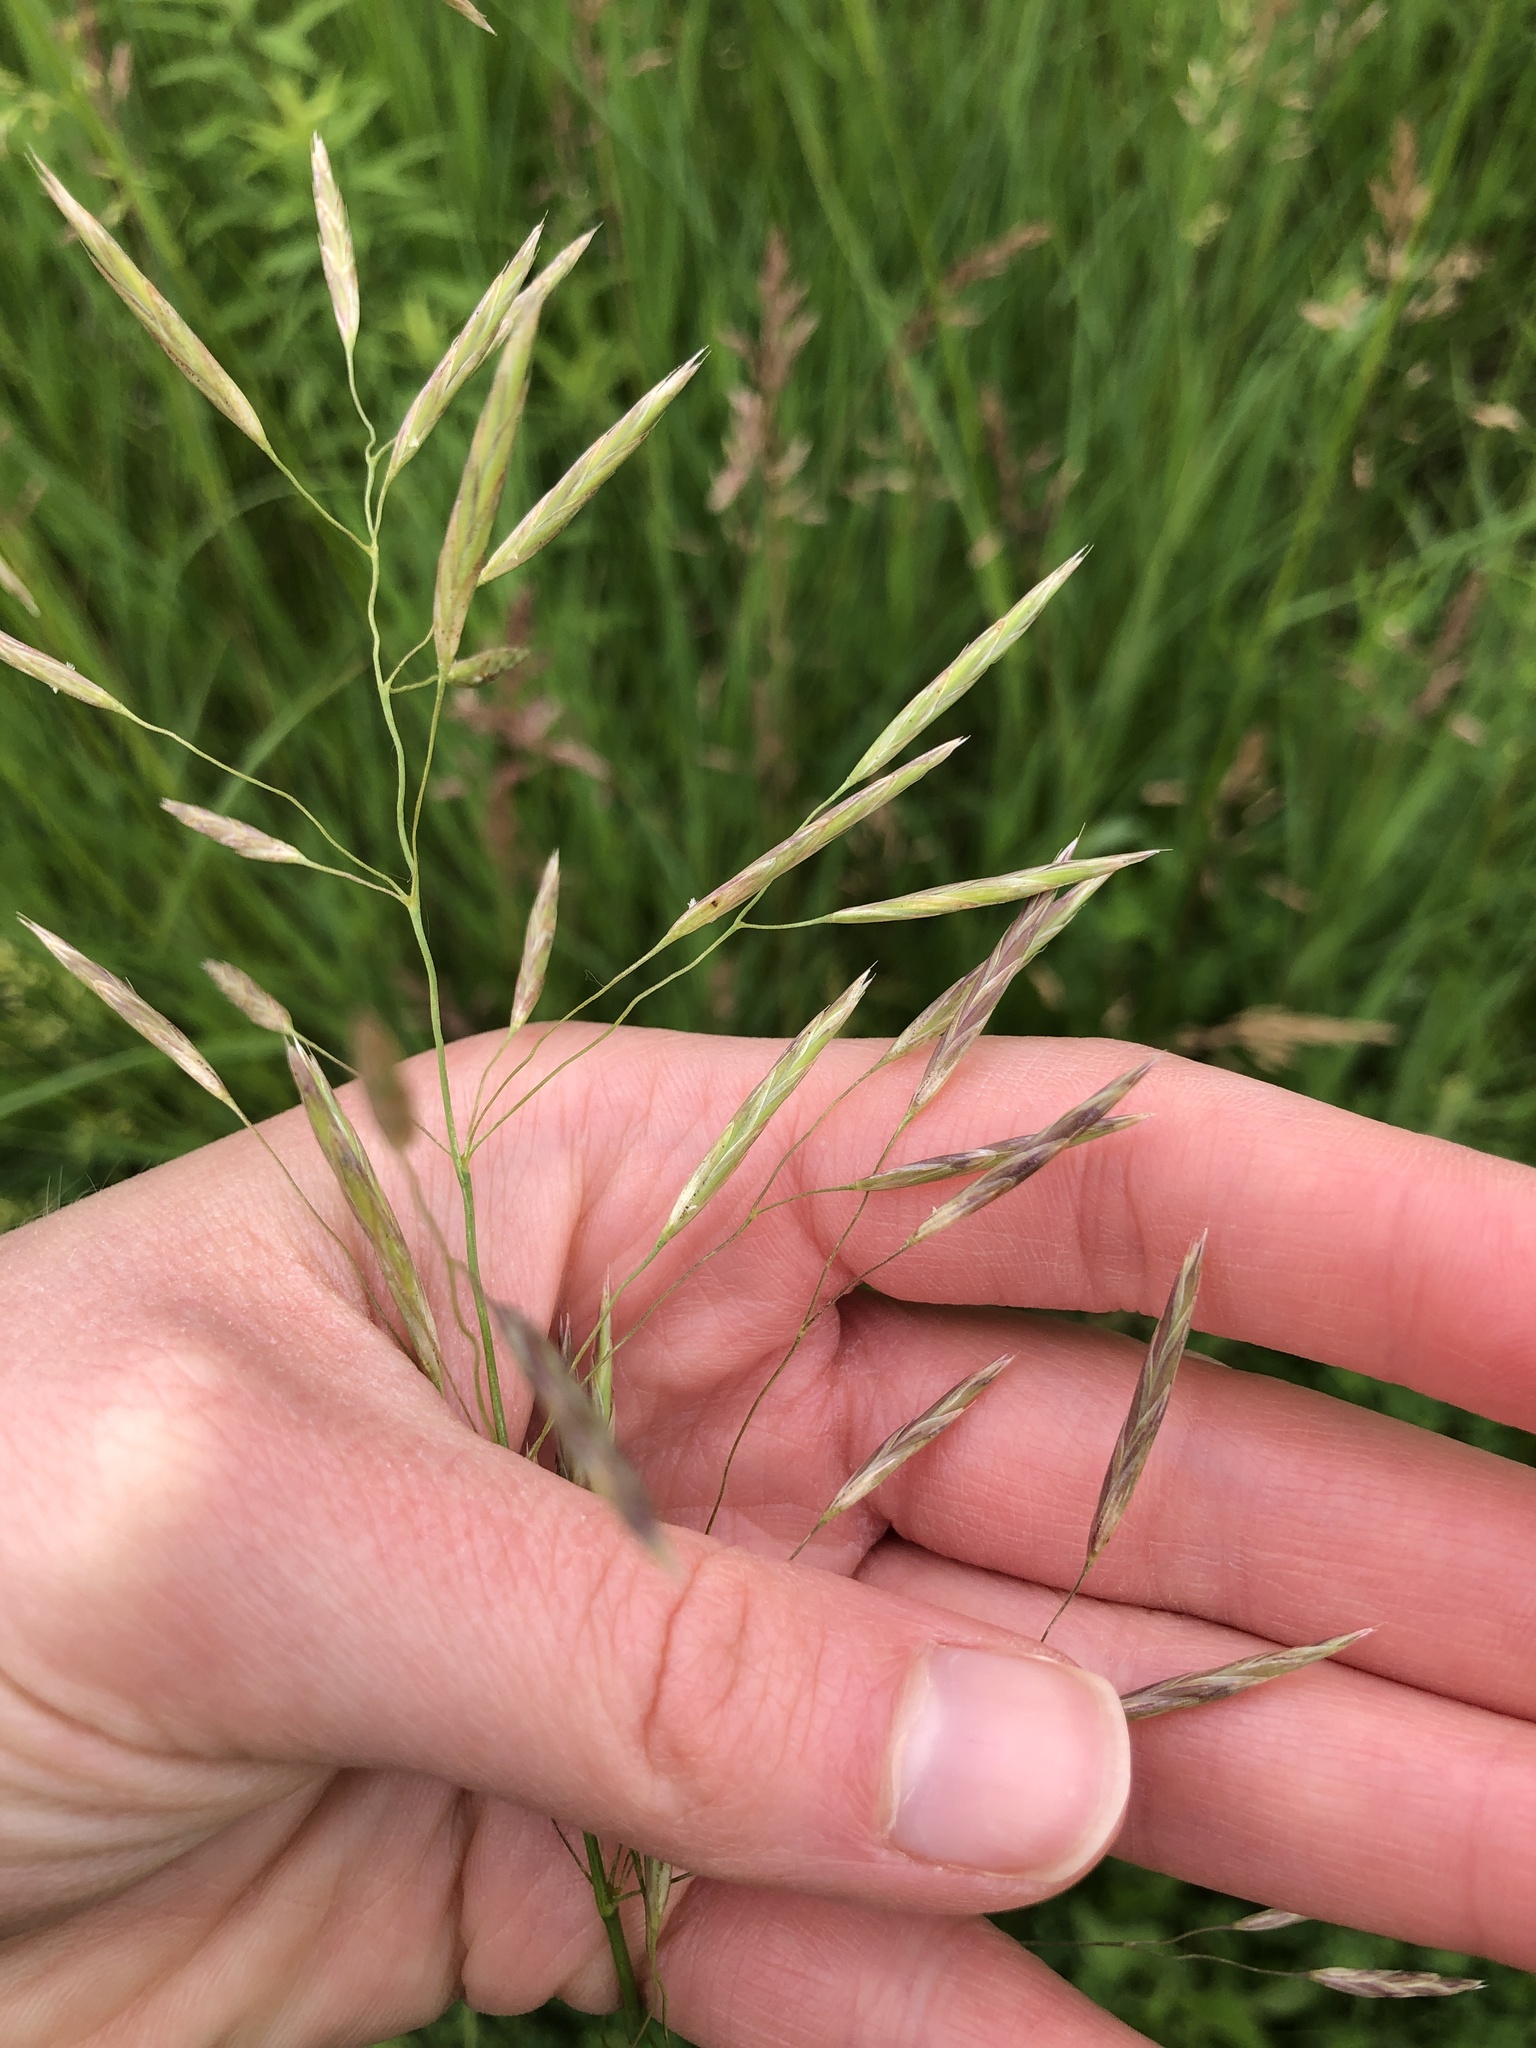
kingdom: Plantae
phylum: Tracheophyta
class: Liliopsida
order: Poales
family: Poaceae
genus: Bromus
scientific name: Bromus inermis
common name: Smooth brome
